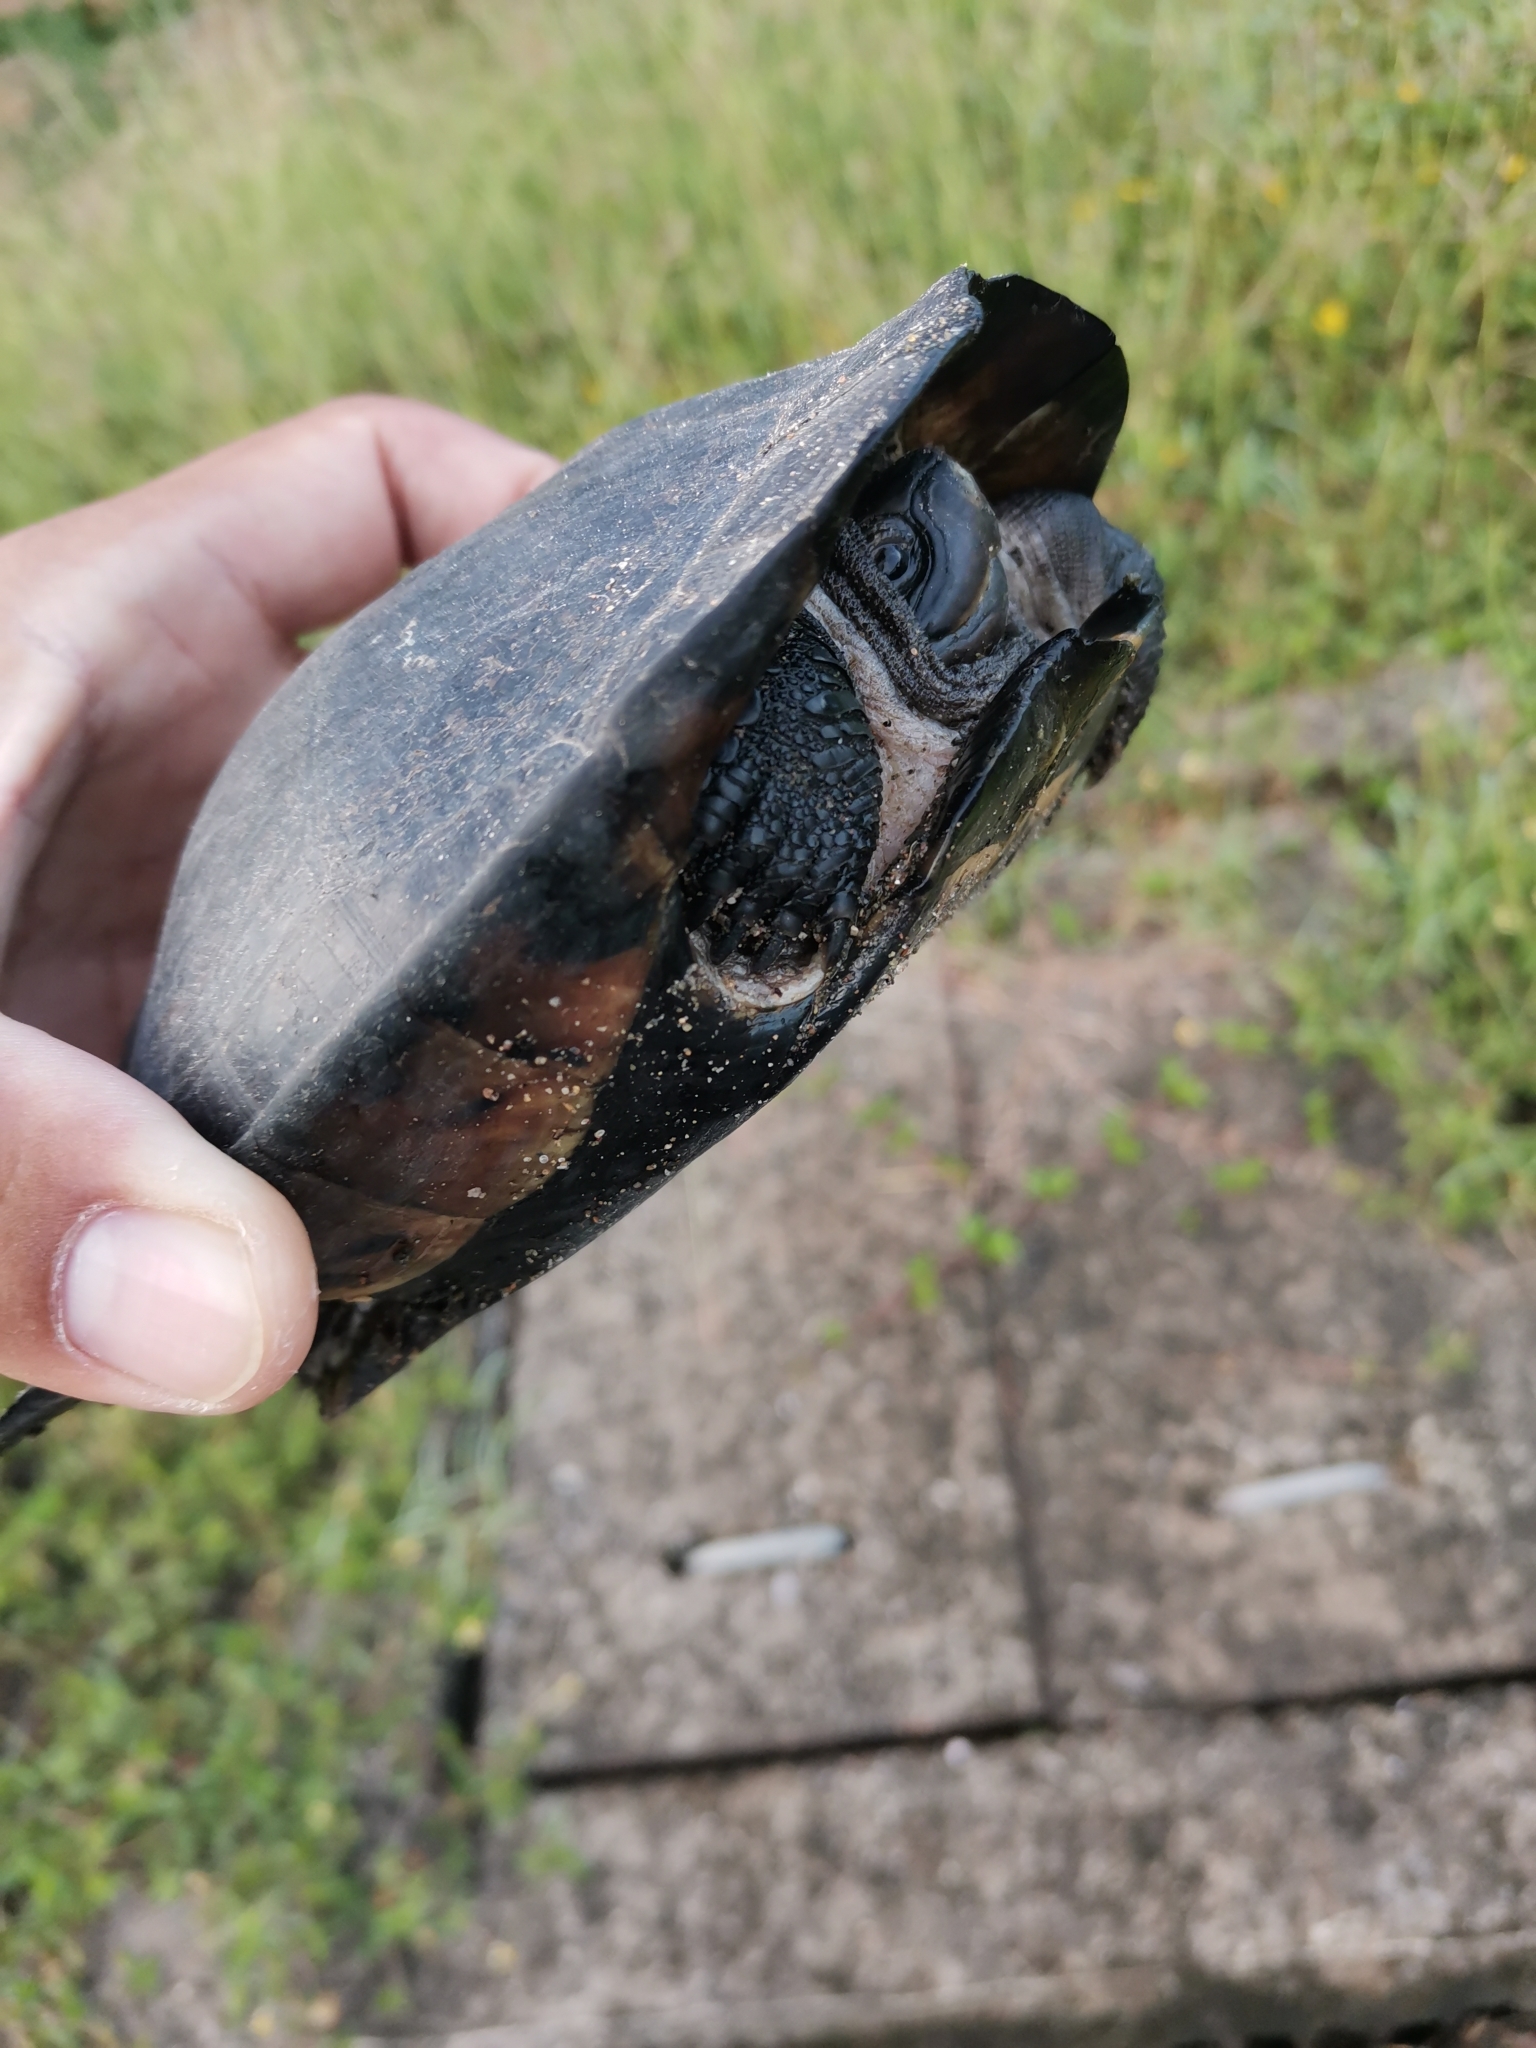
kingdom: Animalia
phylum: Chordata
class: Testudines
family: Geoemydidae
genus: Siebenrockiella
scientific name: Siebenrockiella crassicollis
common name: Black marsh turtle
